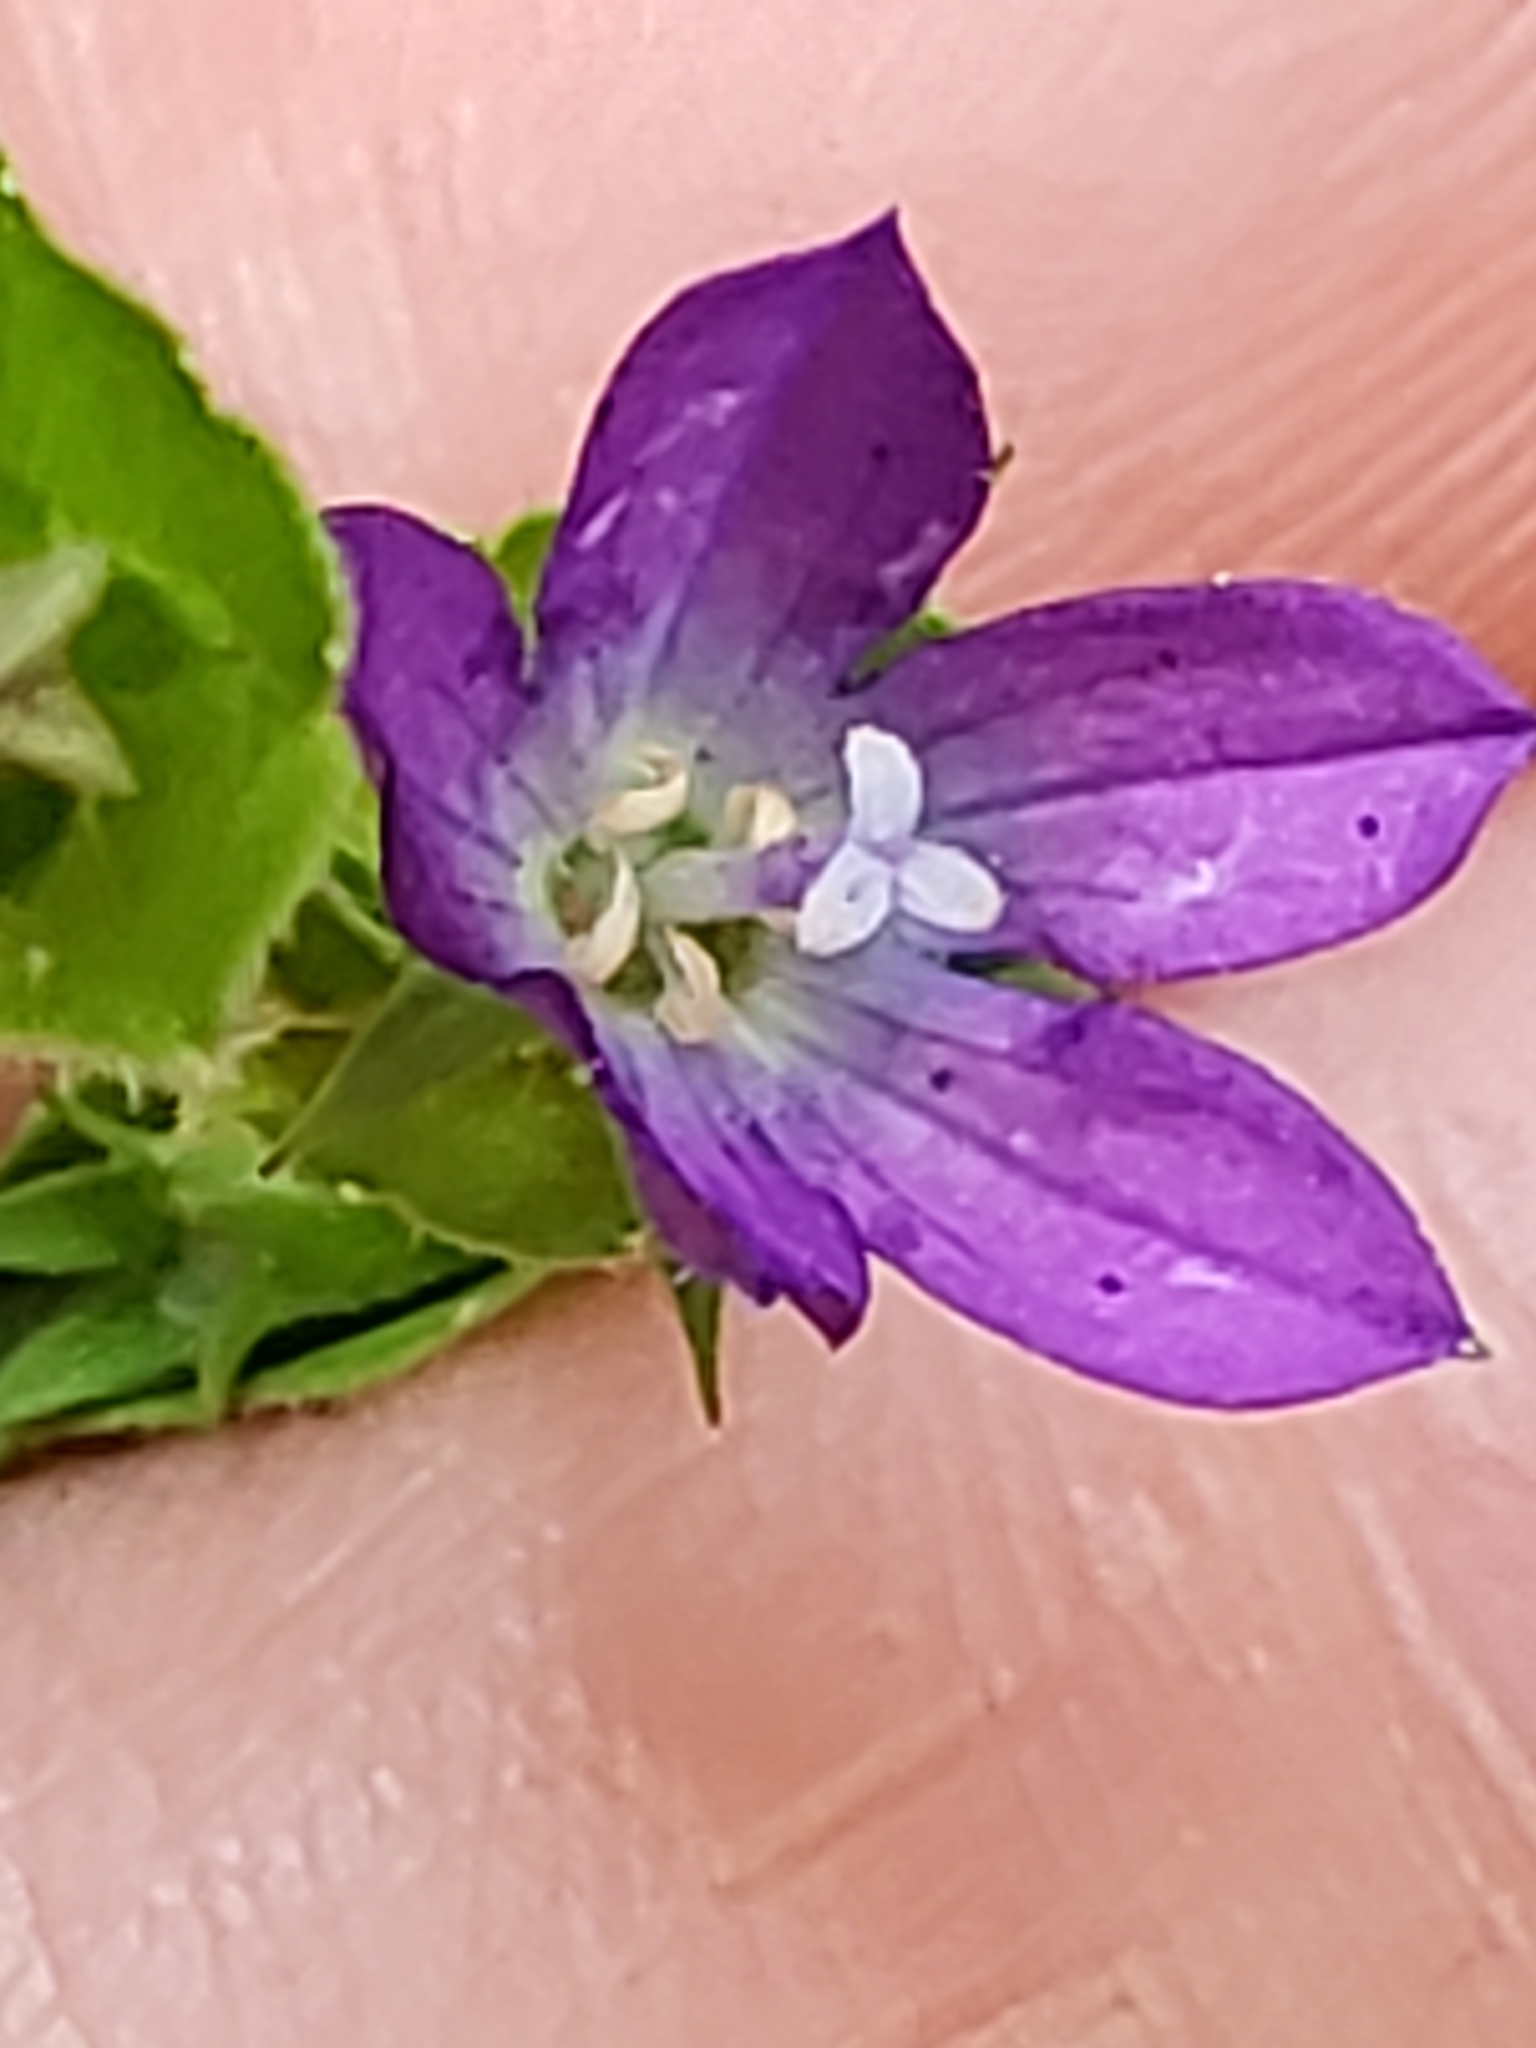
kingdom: Plantae
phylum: Tracheophyta
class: Magnoliopsida
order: Asterales
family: Campanulaceae
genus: Triodanis
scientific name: Triodanis perfoliata
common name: Clasping venus' looking-glass
